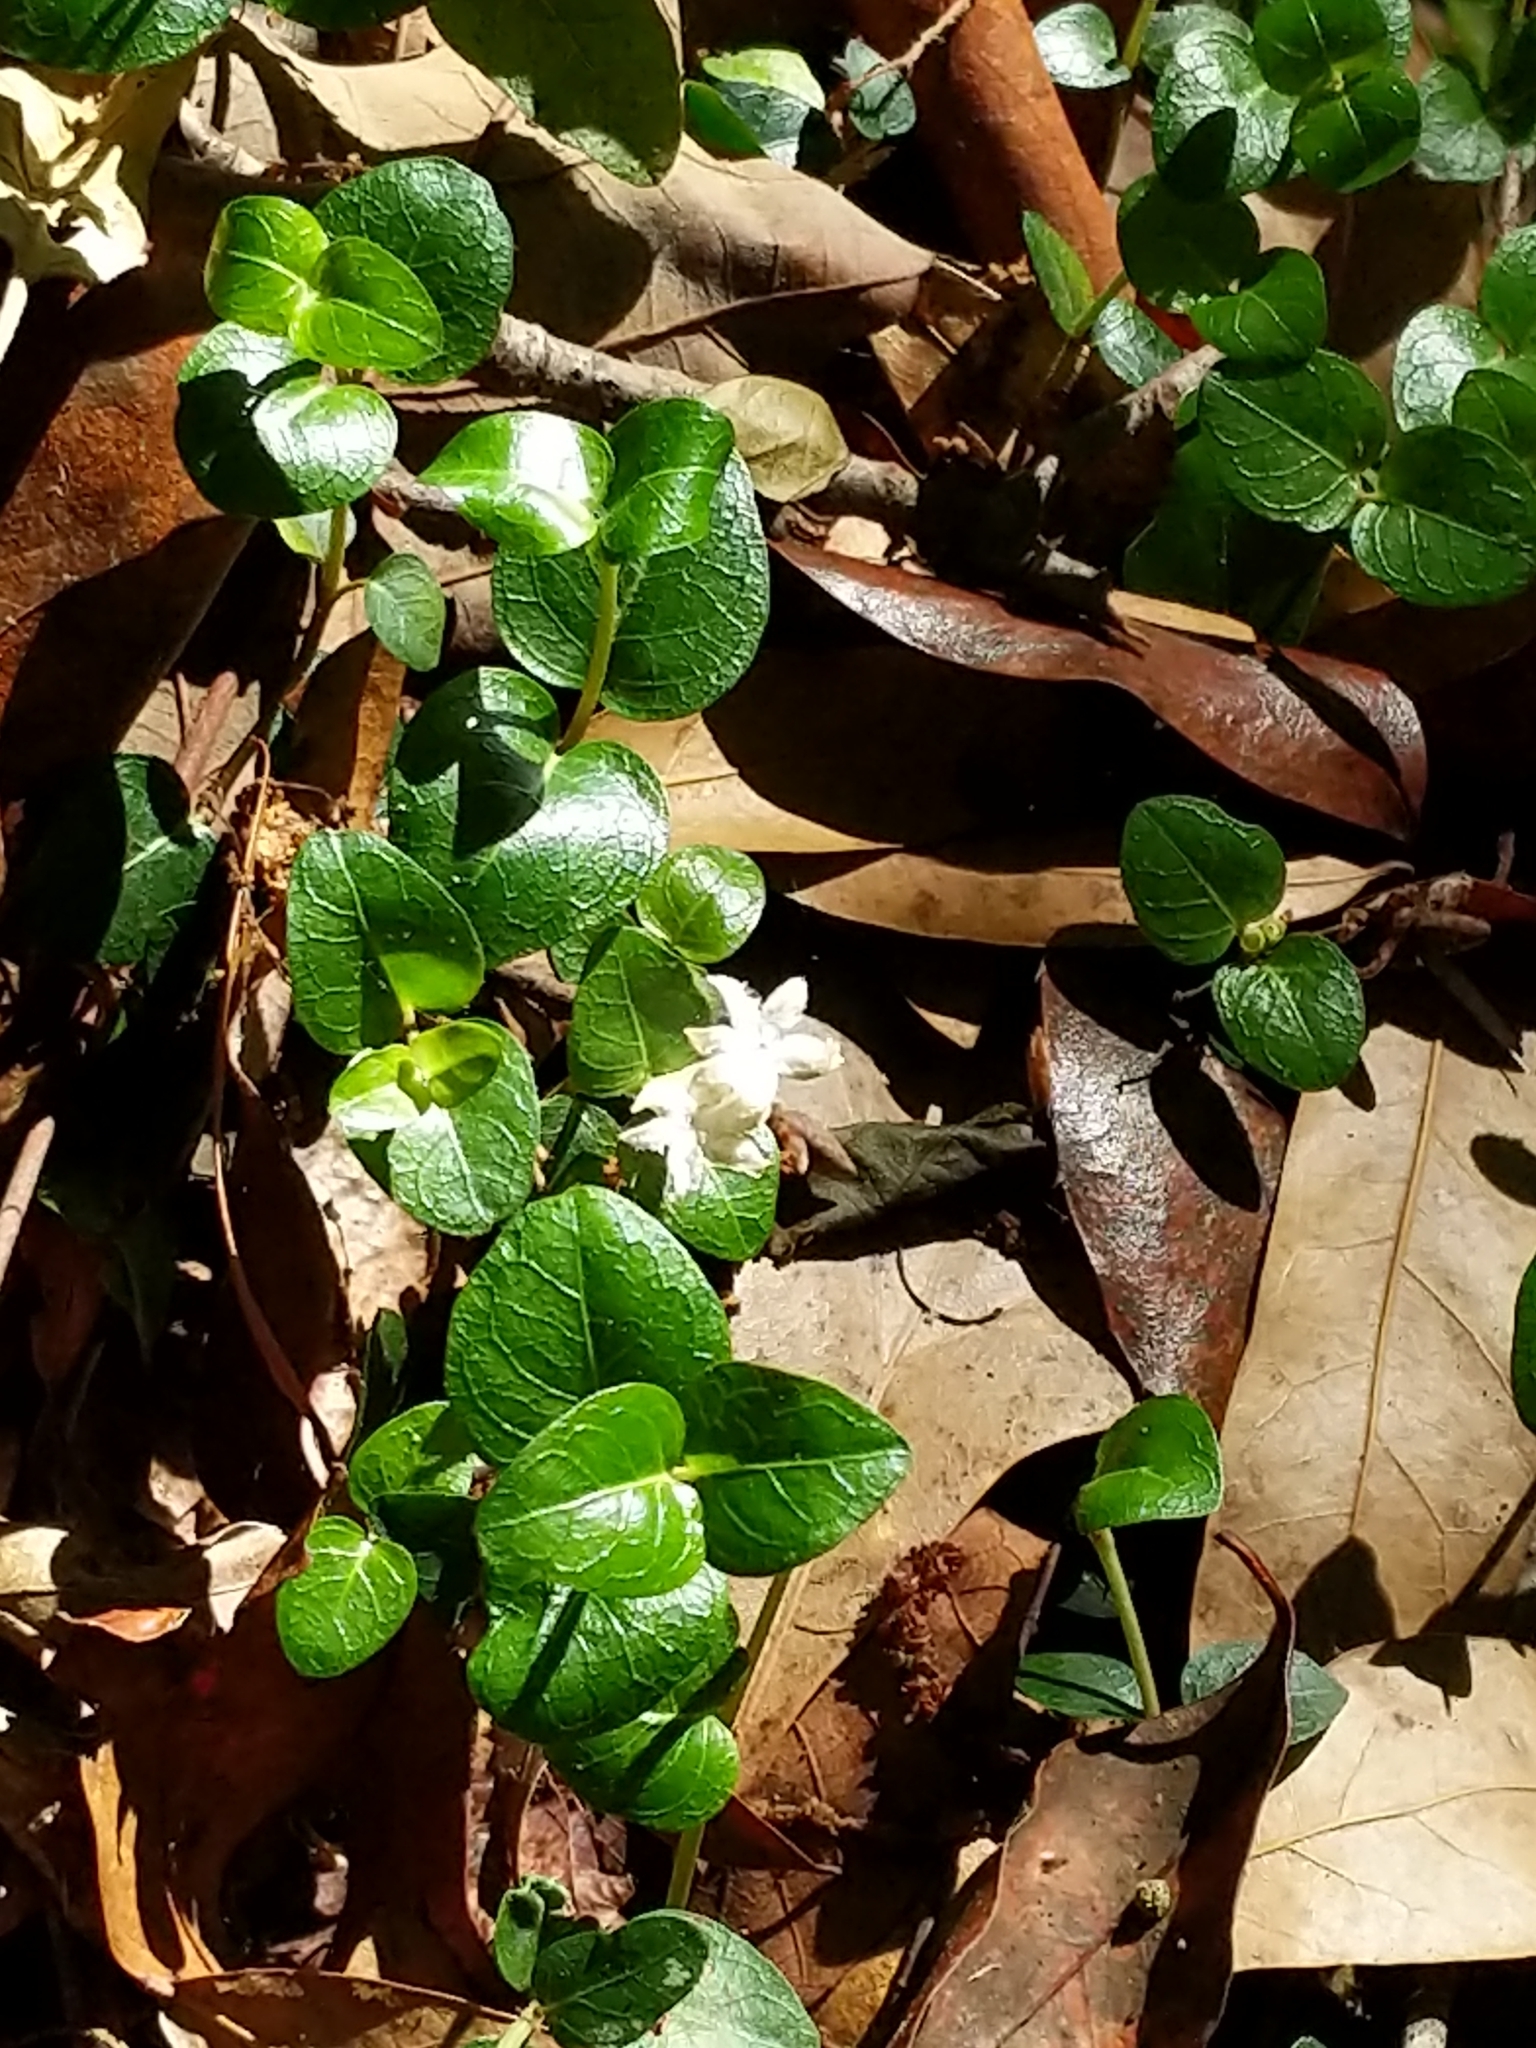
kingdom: Plantae
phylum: Tracheophyta
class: Magnoliopsida
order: Gentianales
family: Rubiaceae
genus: Mitchella
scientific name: Mitchella repens
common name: Partridge-berry
